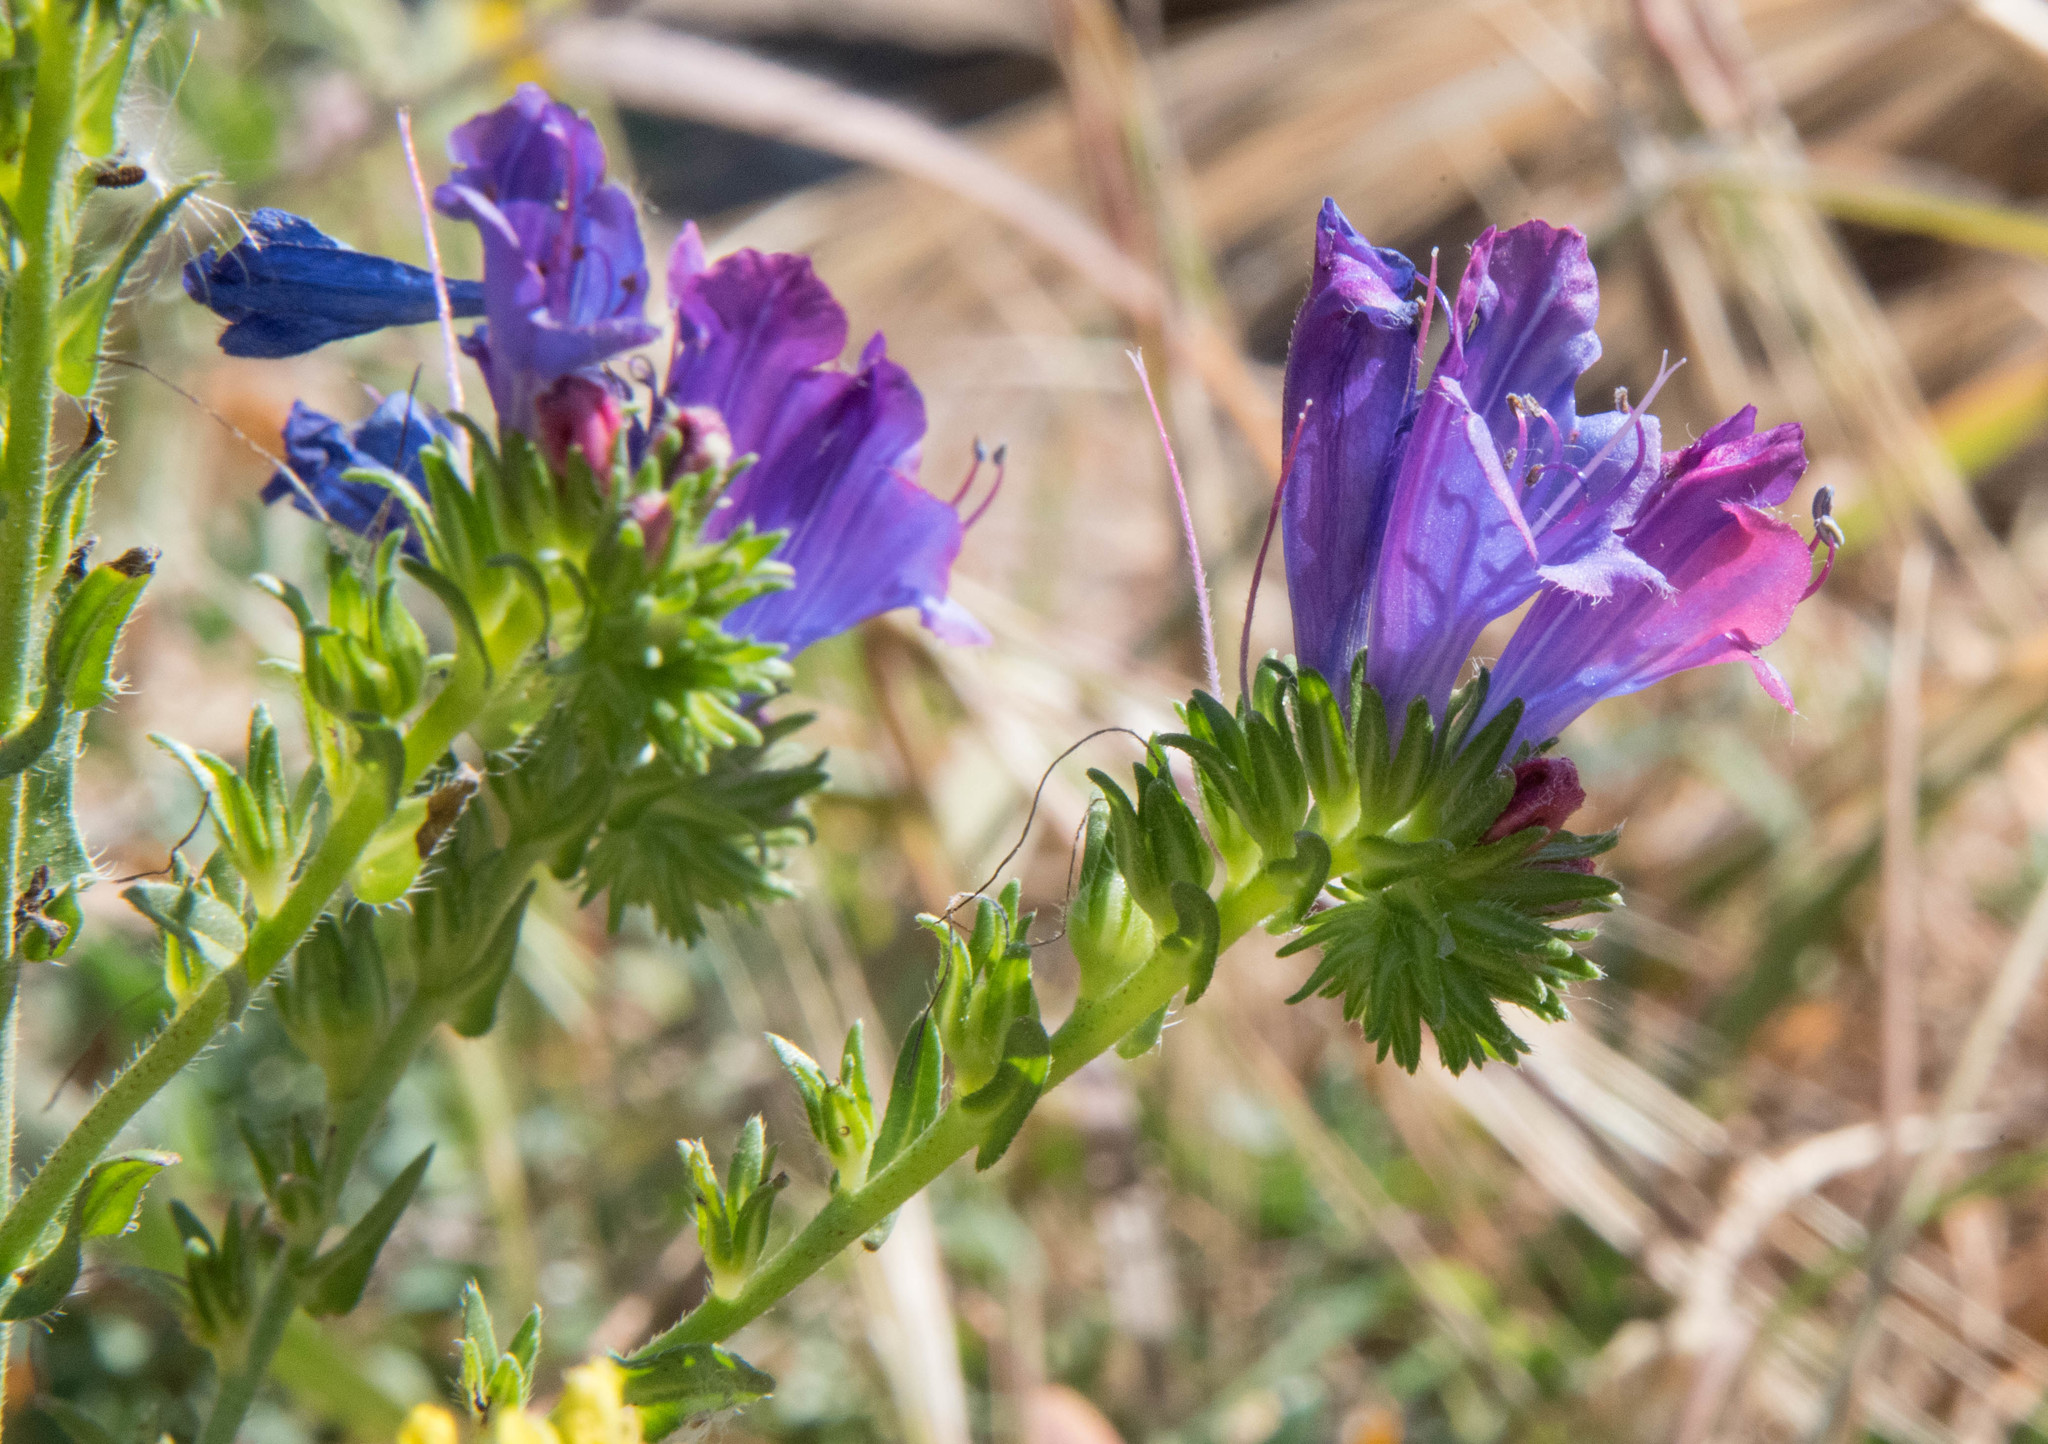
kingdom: Plantae
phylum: Tracheophyta
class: Magnoliopsida
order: Boraginales
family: Boraginaceae
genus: Echium
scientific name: Echium plantagineum
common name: Purple viper's-bugloss
